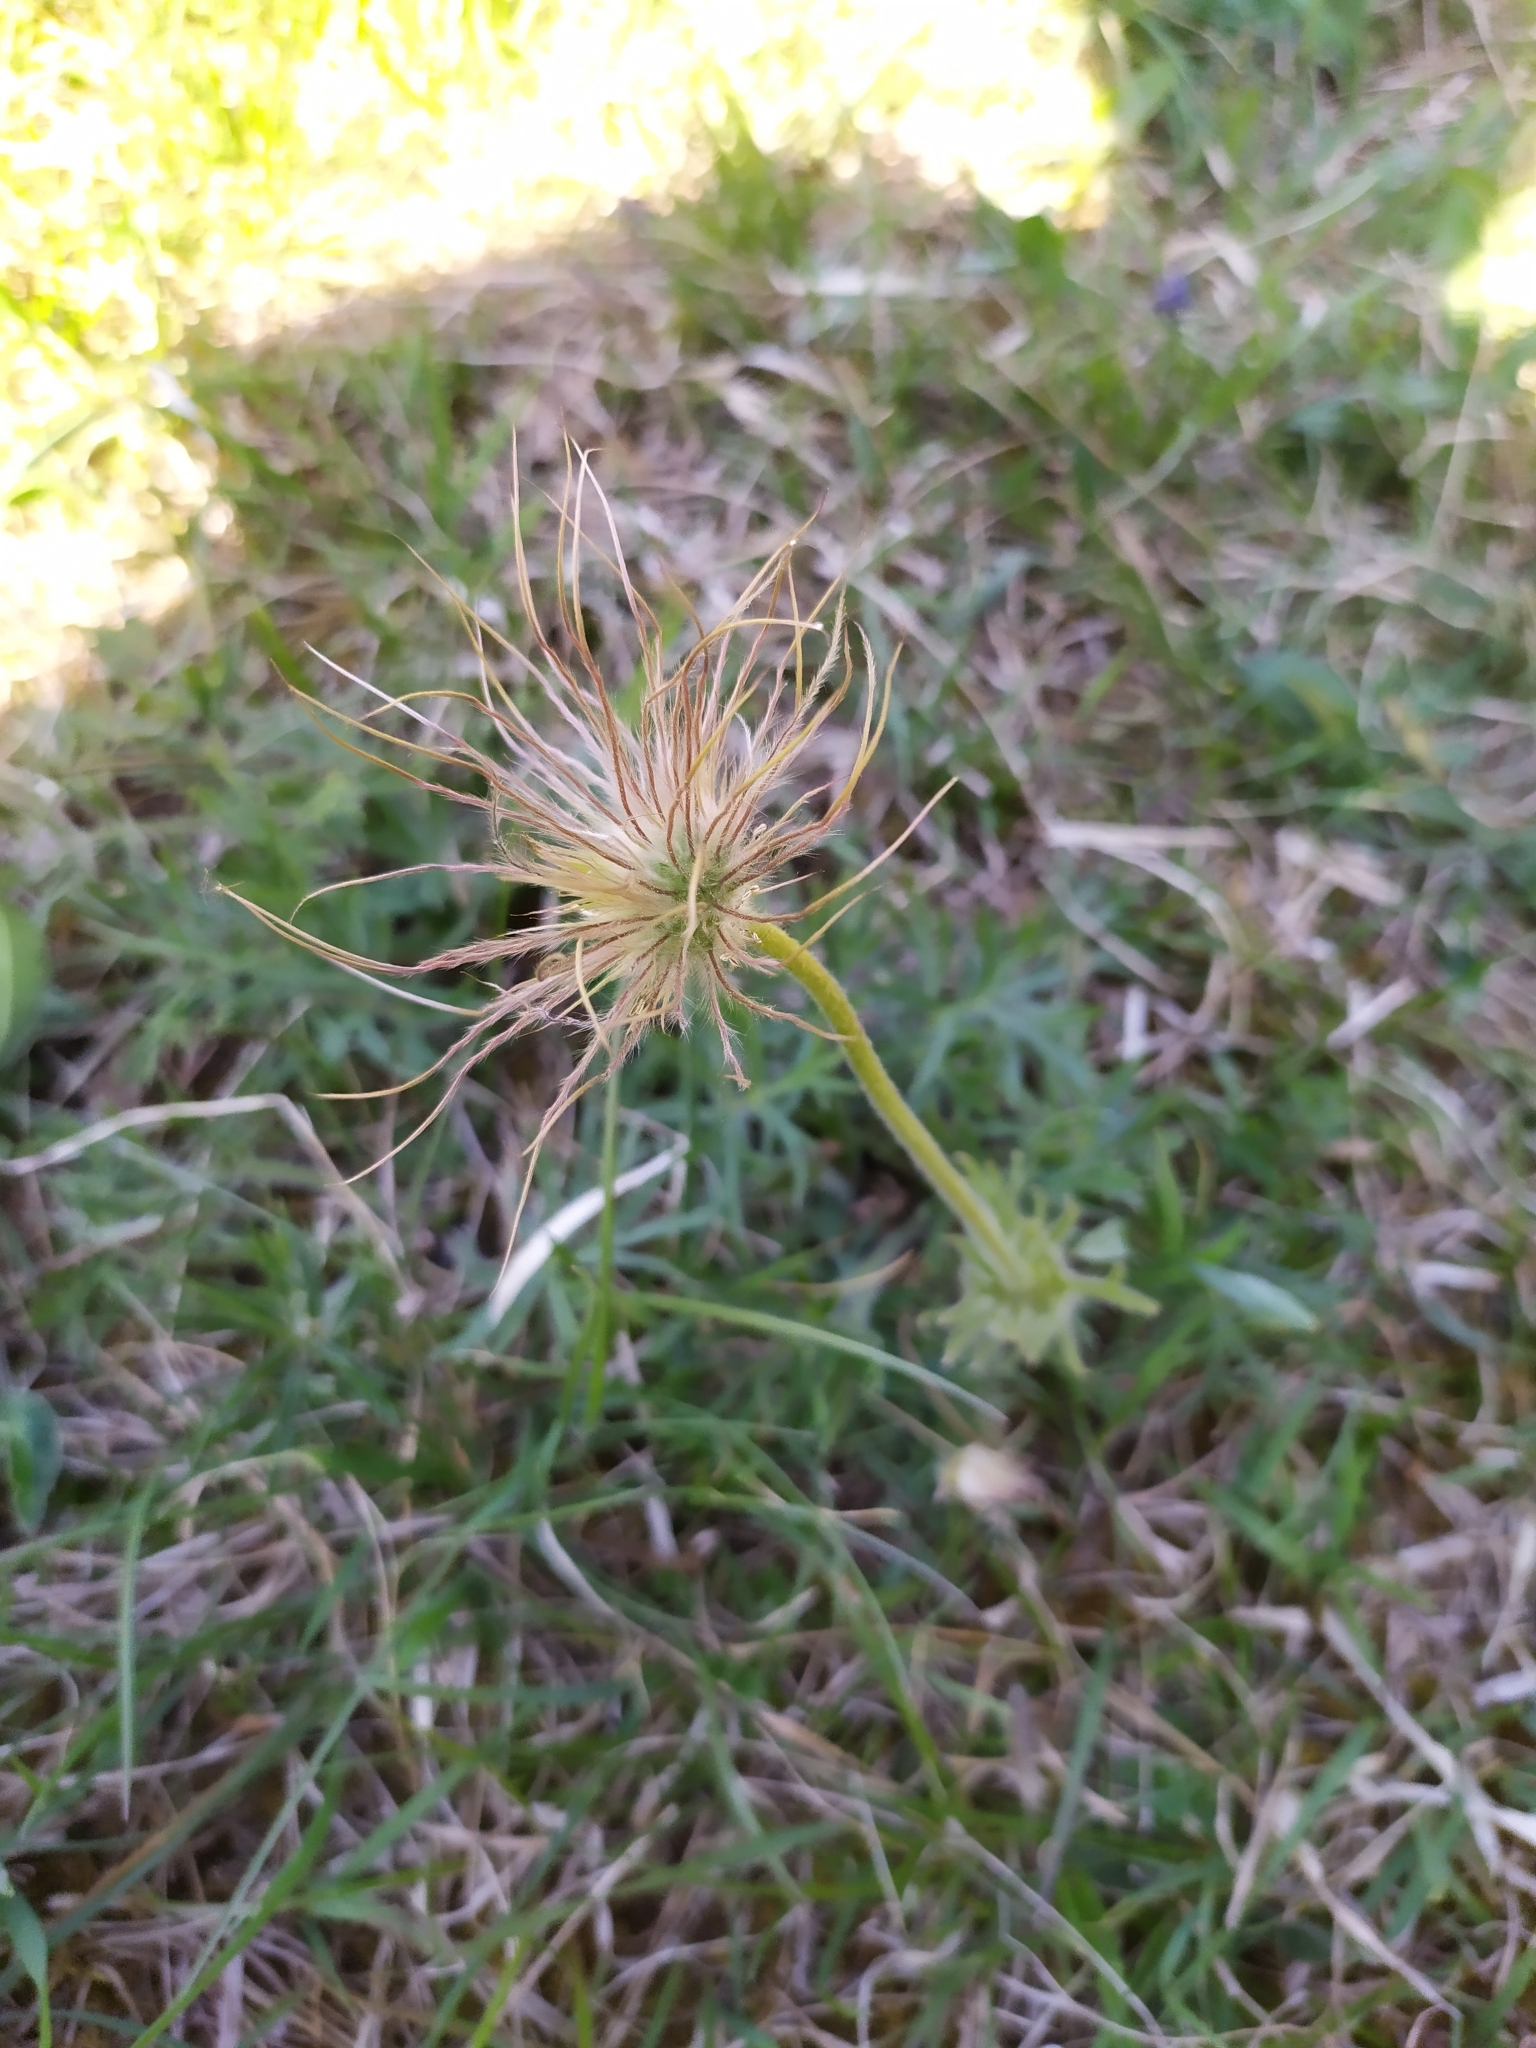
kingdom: Plantae
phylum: Tracheophyta
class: Magnoliopsida
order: Ranunculales
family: Ranunculaceae
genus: Pulsatilla
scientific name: Pulsatilla grandis
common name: Greater pasque flower
